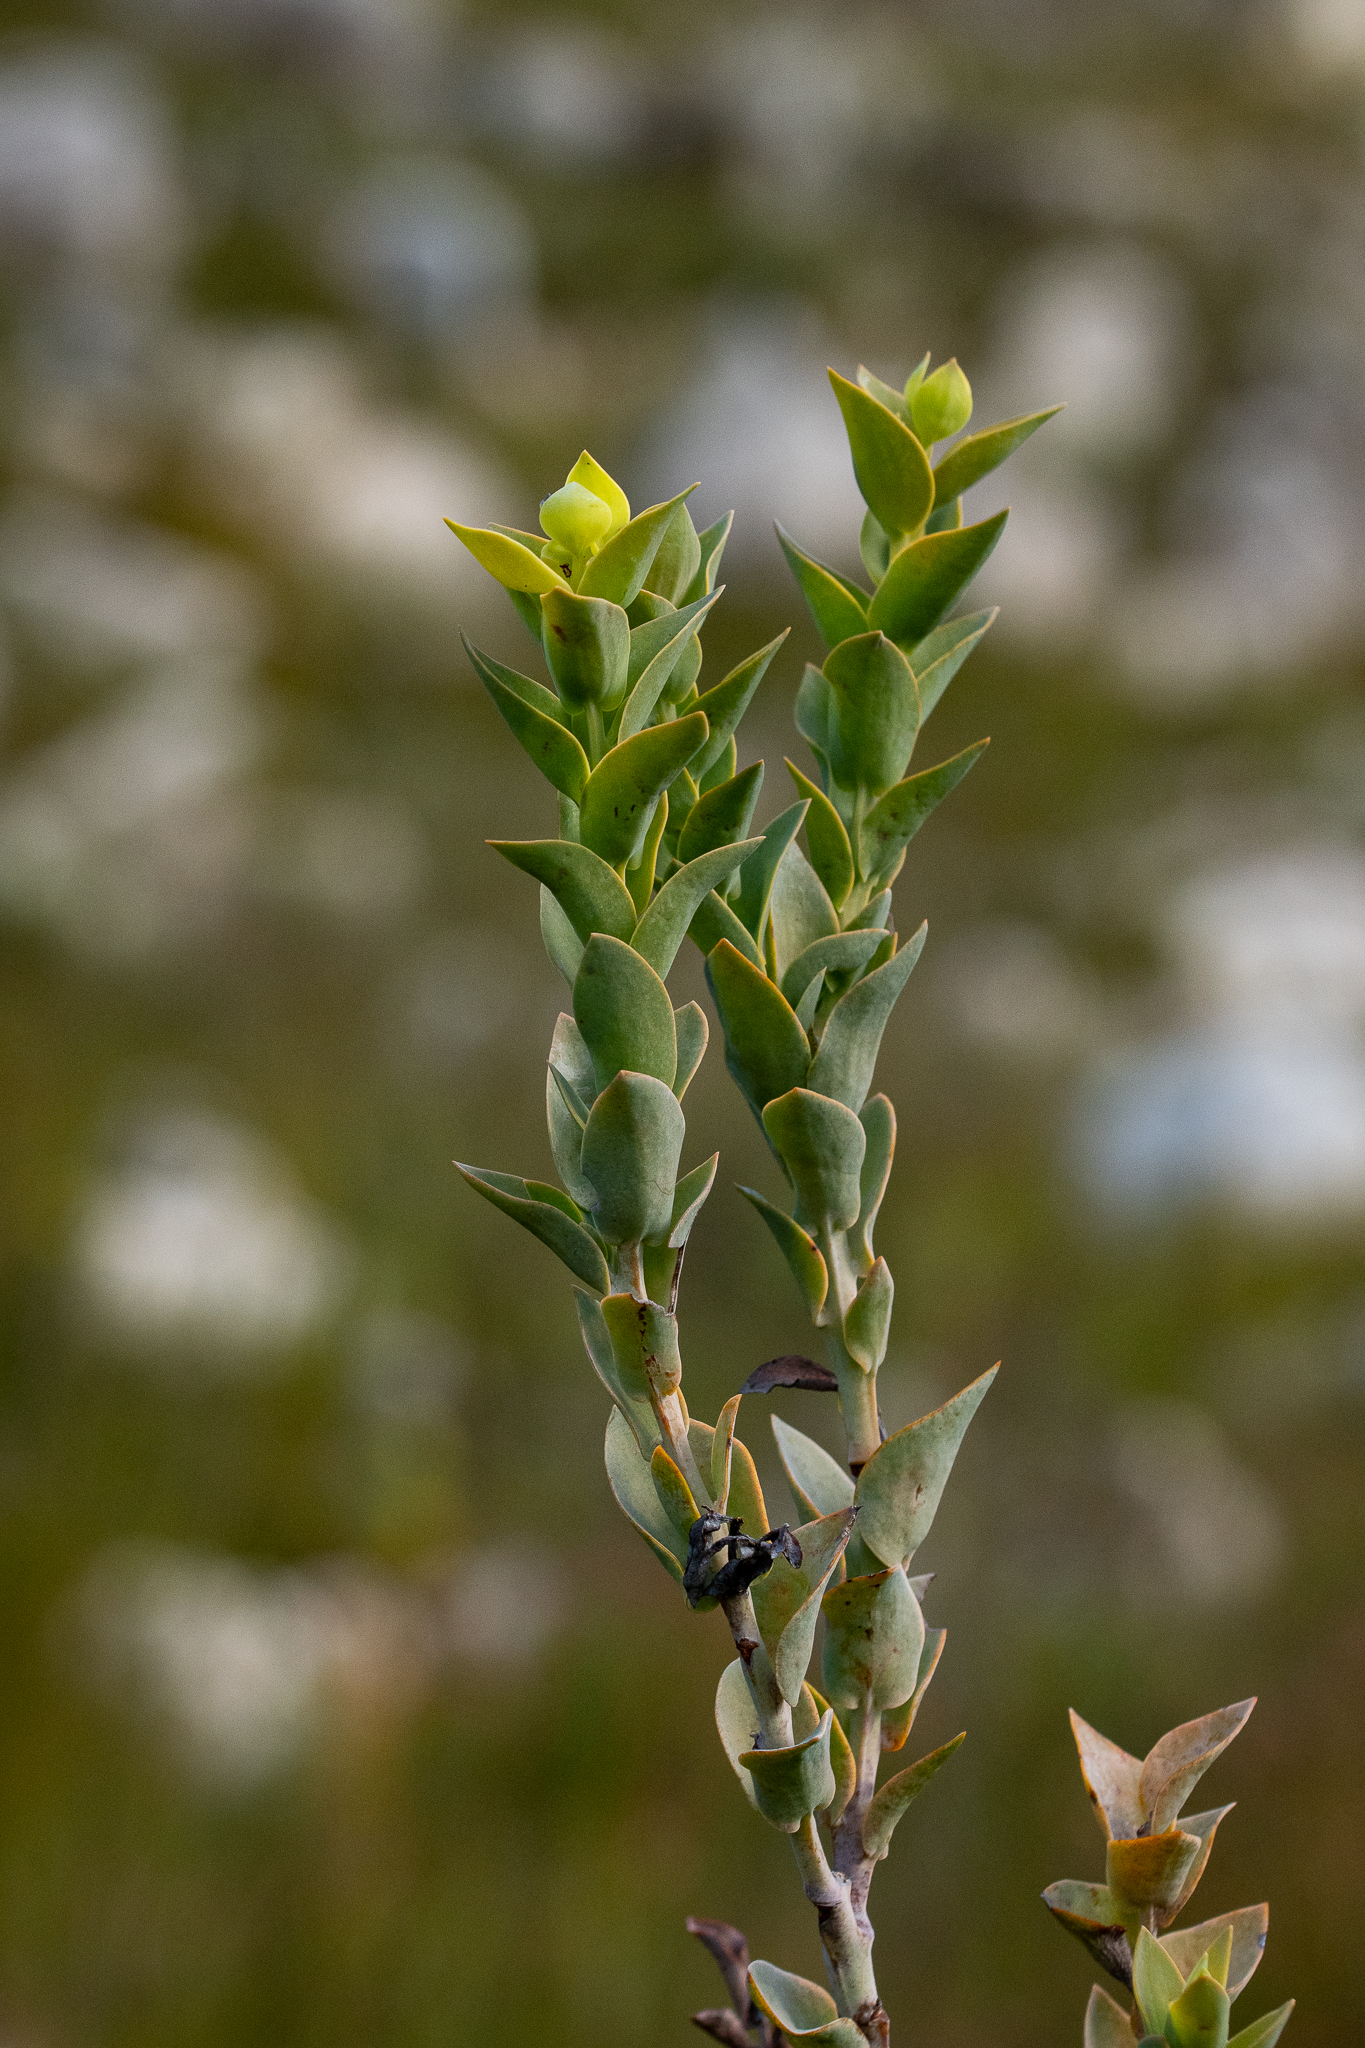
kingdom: Plantae
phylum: Tracheophyta
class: Magnoliopsida
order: Santalales
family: Thesiaceae
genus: Thesium
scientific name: Thesium euphorbioides
